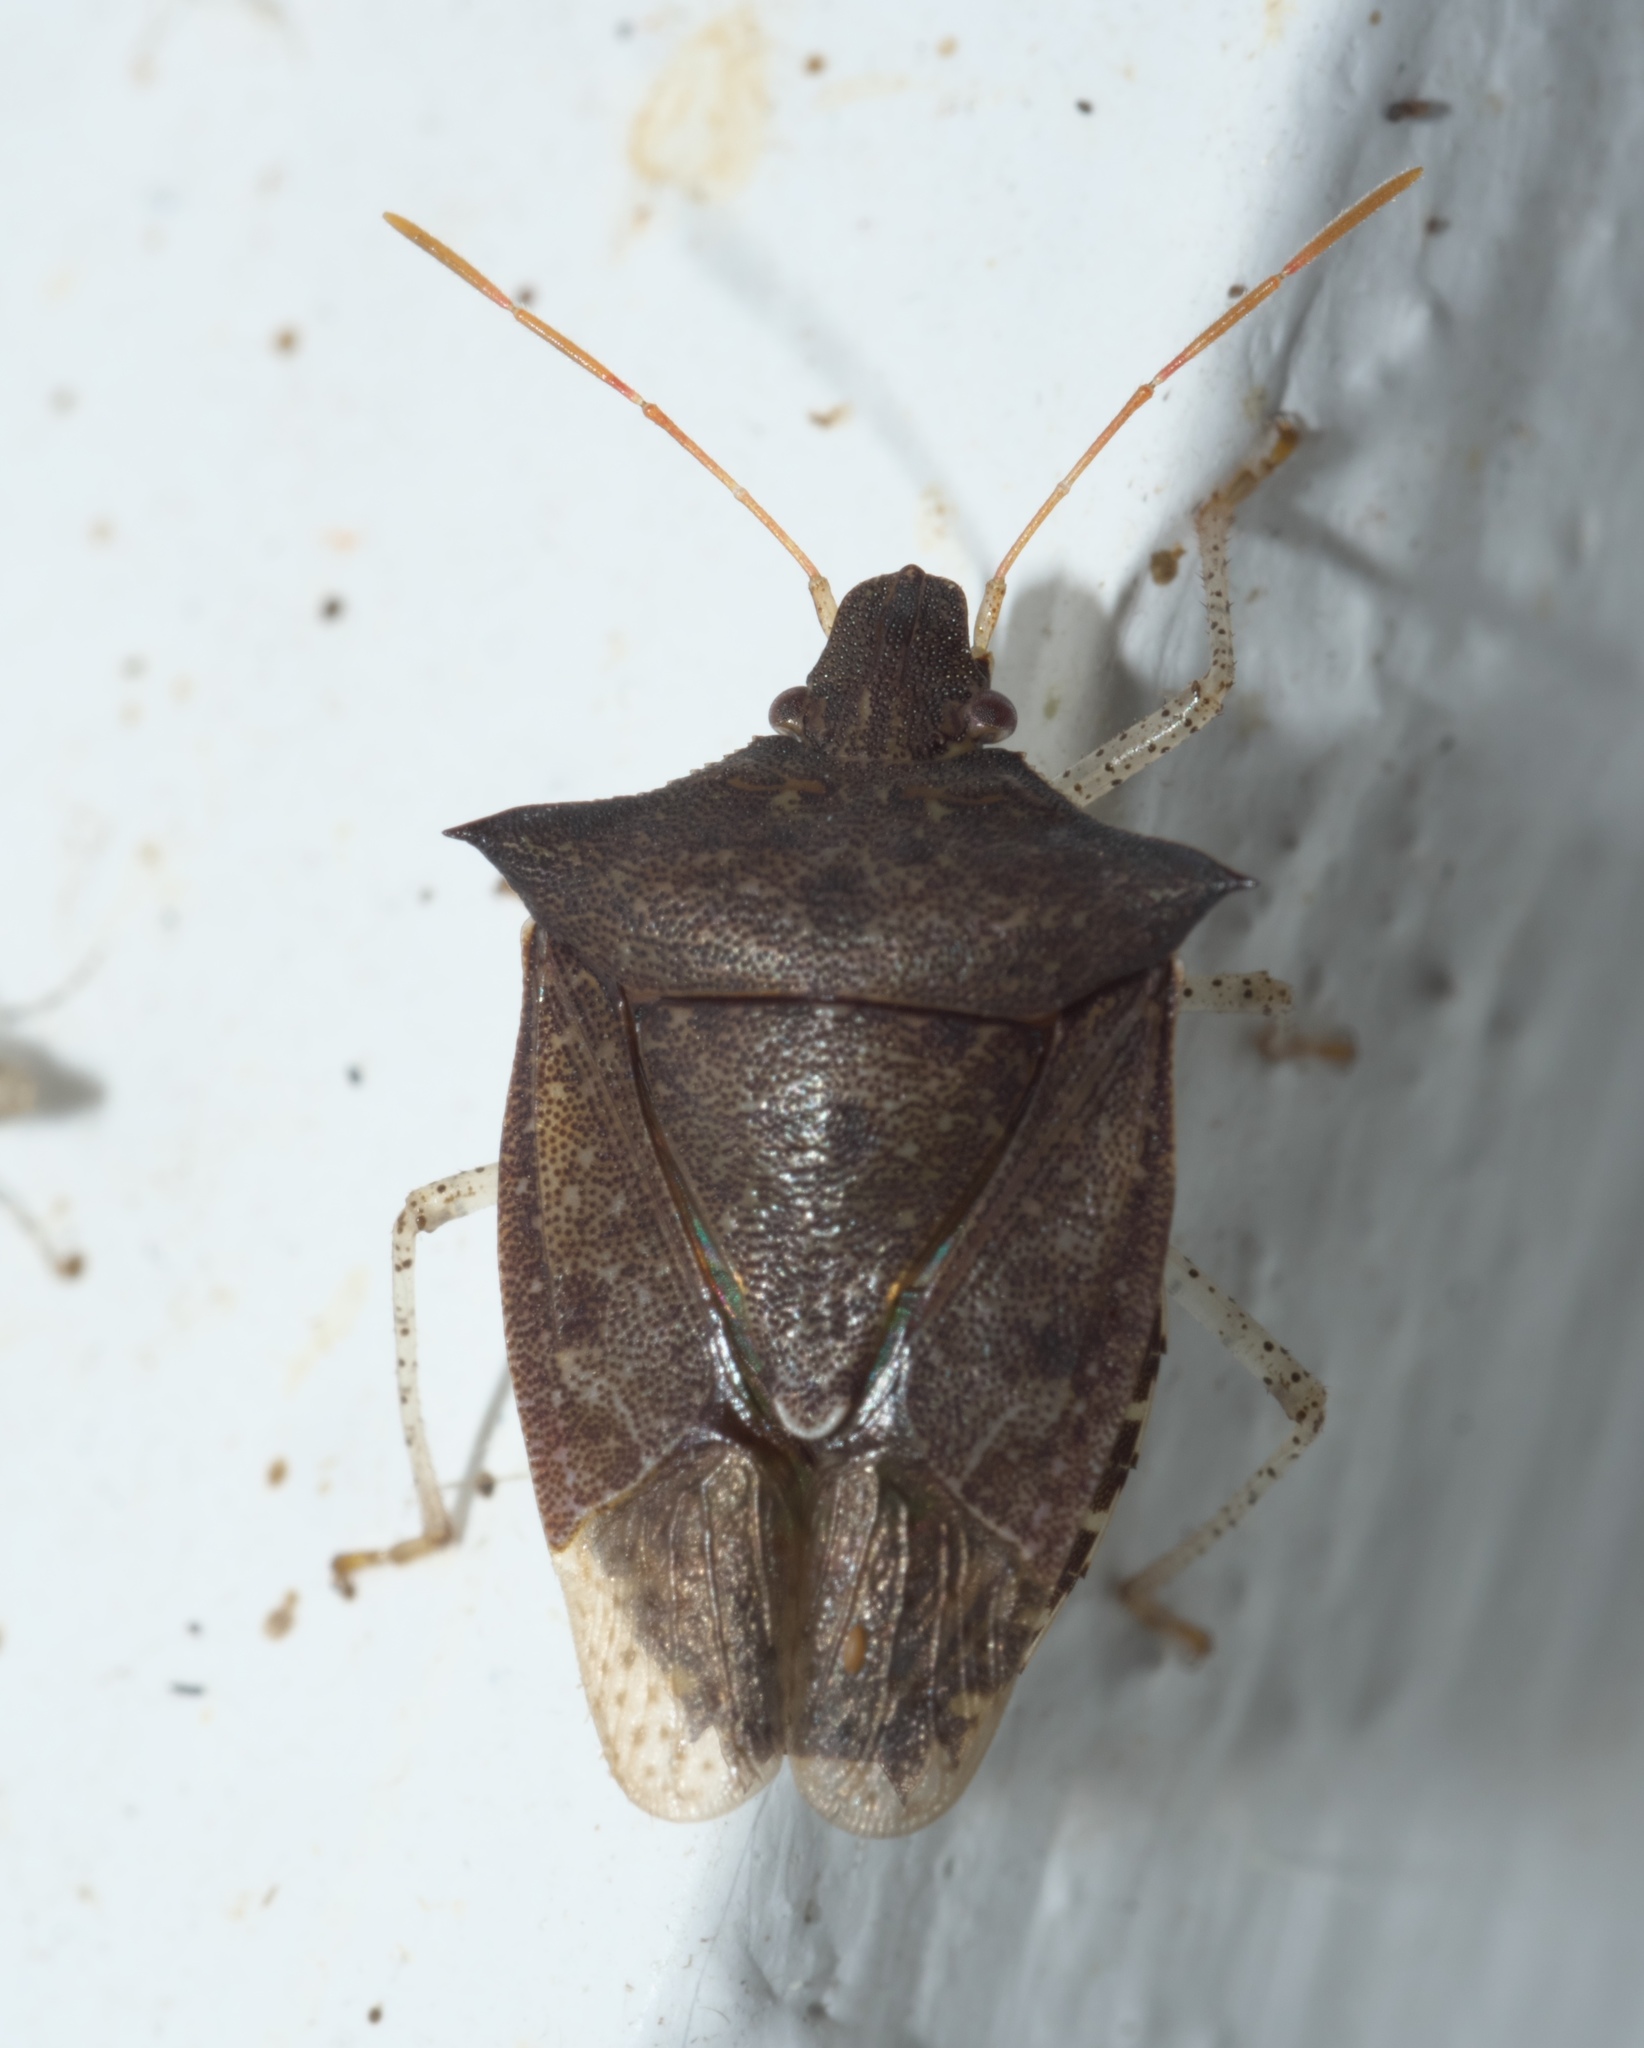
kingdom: Animalia
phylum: Arthropoda
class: Insecta
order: Hemiptera
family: Pentatomidae
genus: Euschistus
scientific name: Euschistus tristigmus
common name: Dusky stink bug
